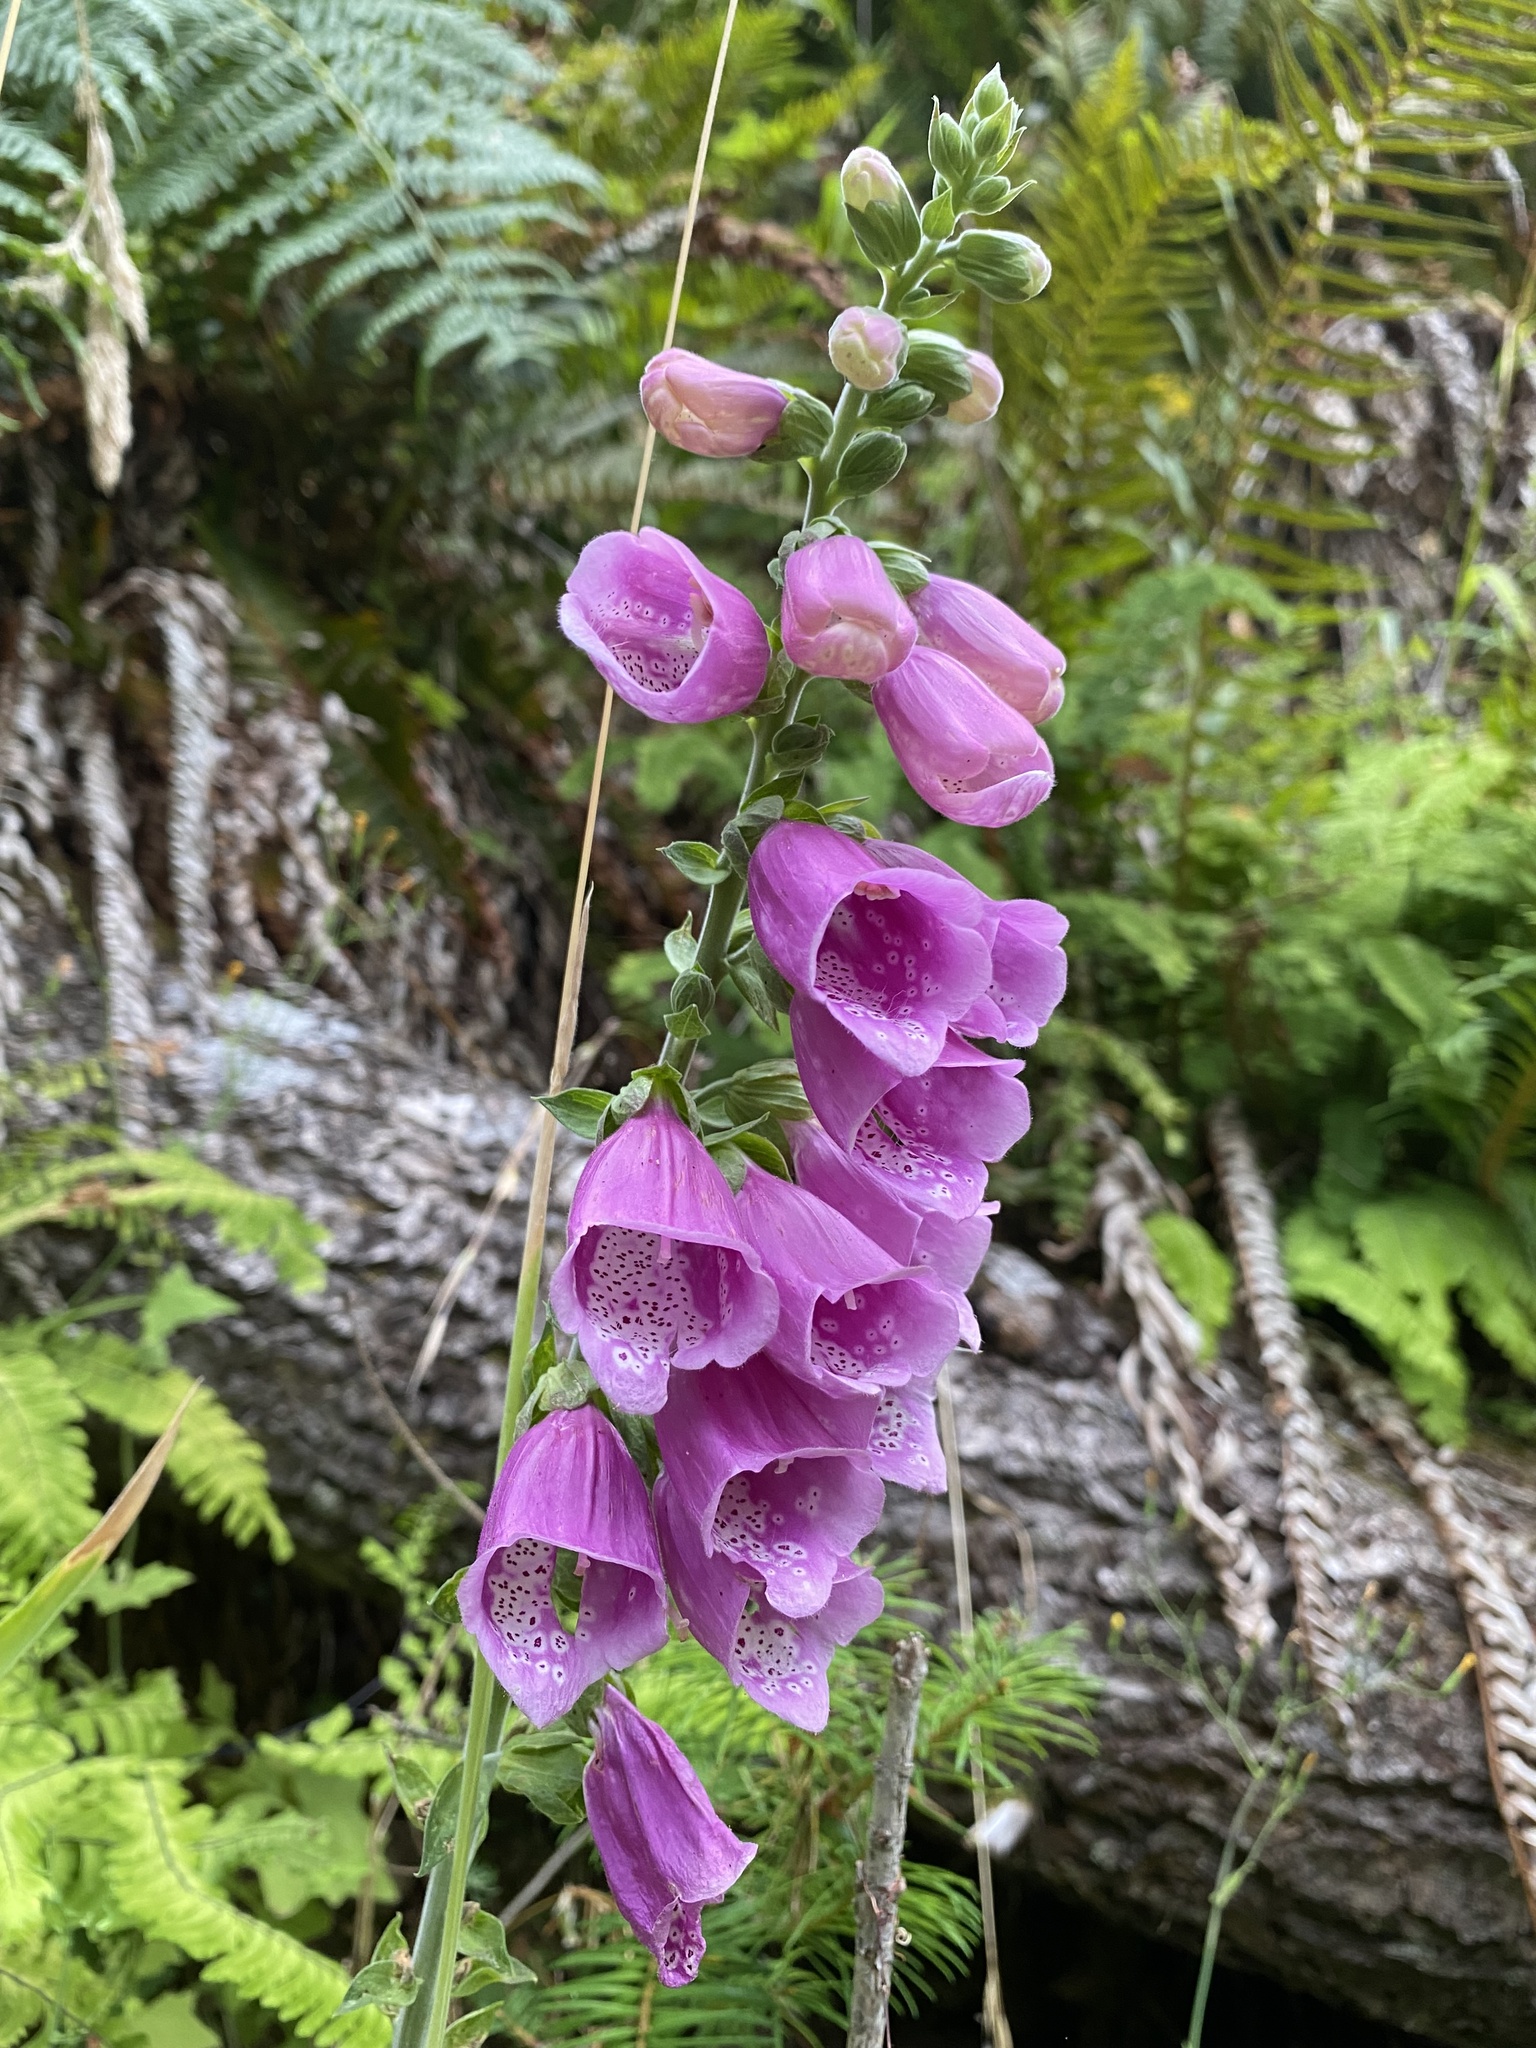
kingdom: Plantae
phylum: Tracheophyta
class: Magnoliopsida
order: Lamiales
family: Plantaginaceae
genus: Digitalis
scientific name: Digitalis purpurea
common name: Foxglove
